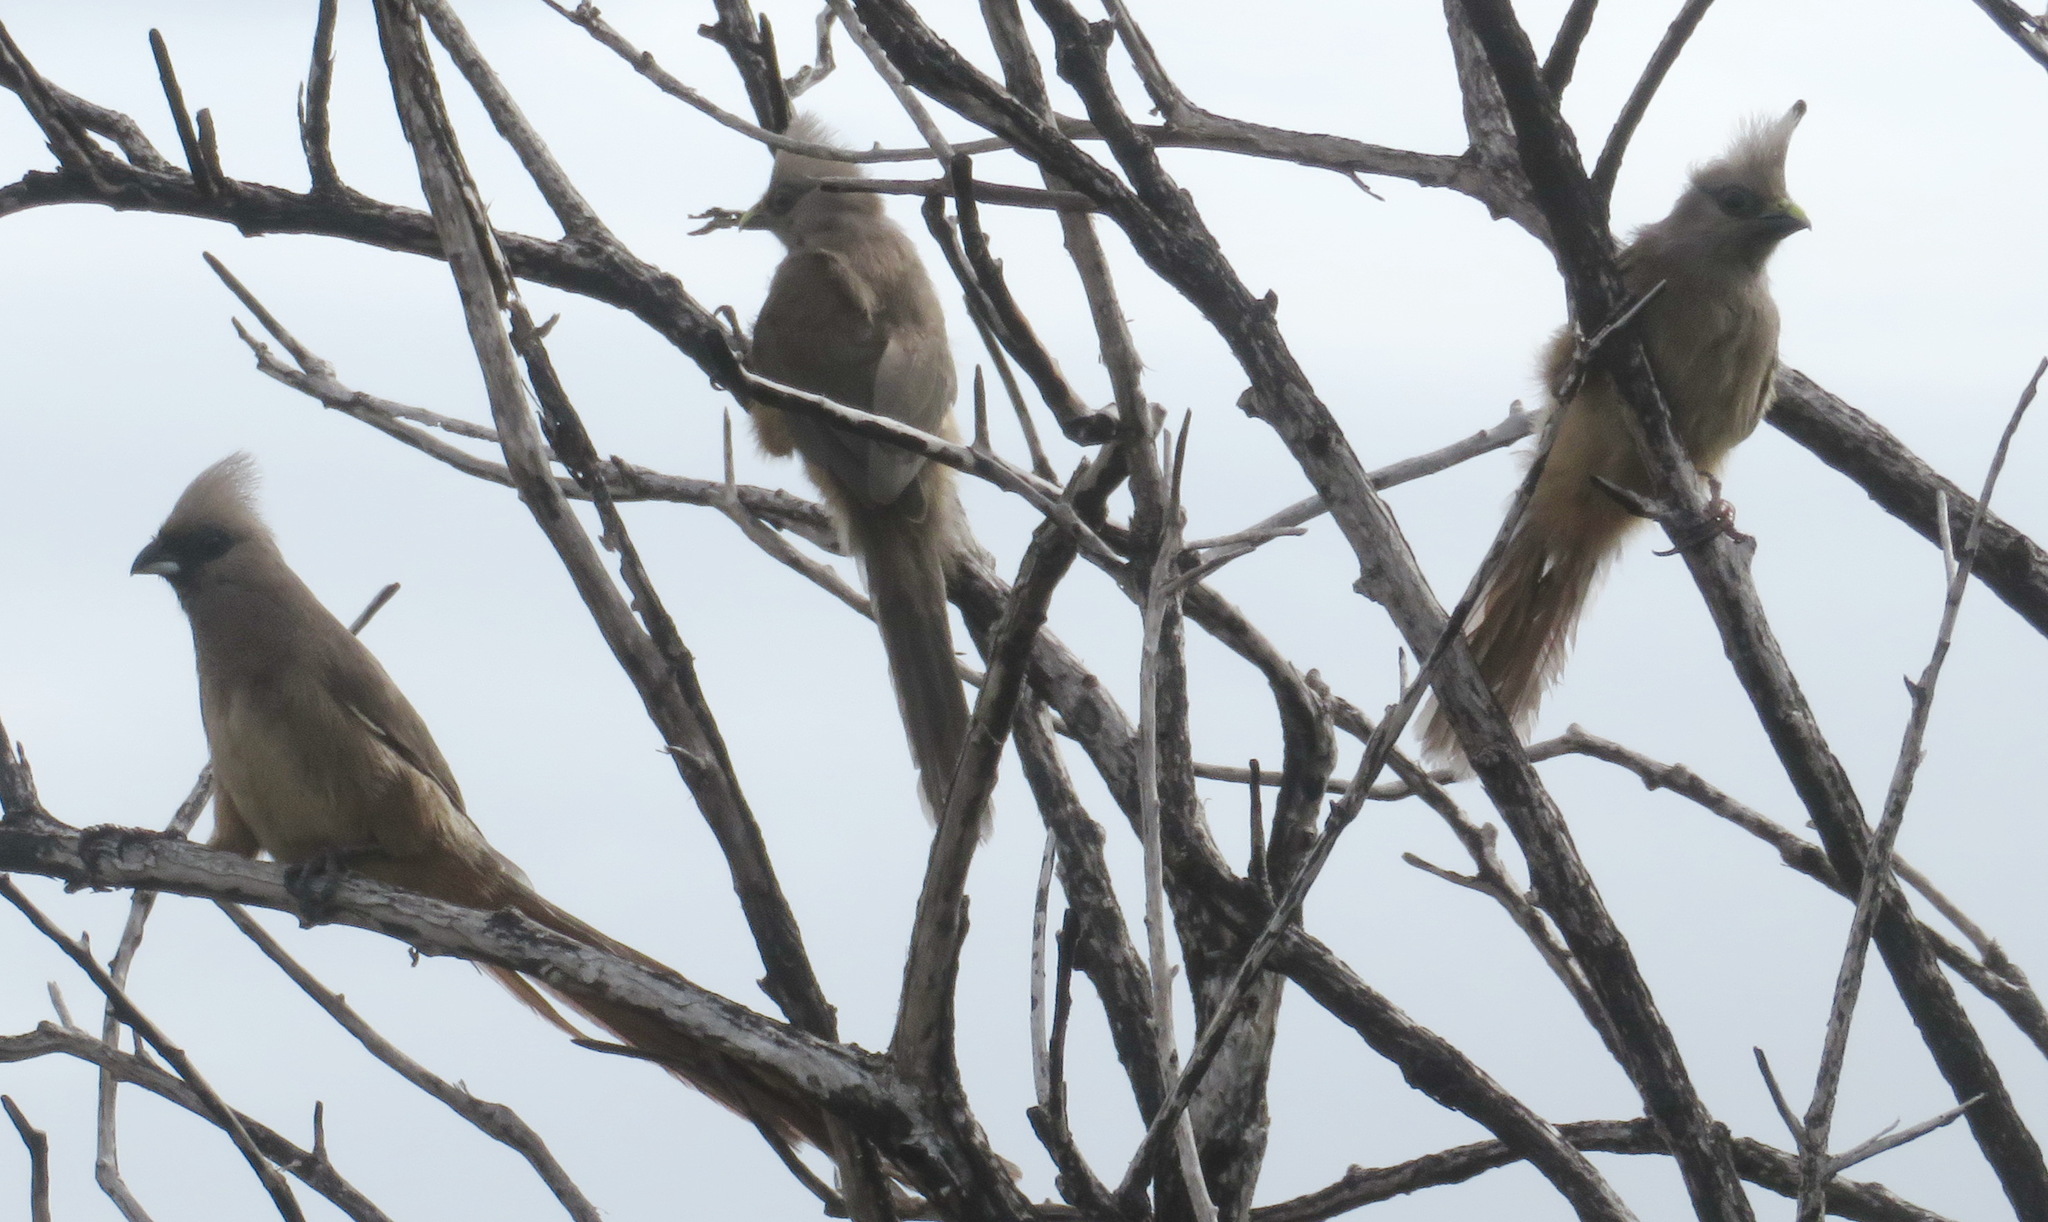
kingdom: Animalia
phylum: Chordata
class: Aves
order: Coliiformes
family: Coliidae
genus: Colius
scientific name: Colius striatus
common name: Speckled mousebird
